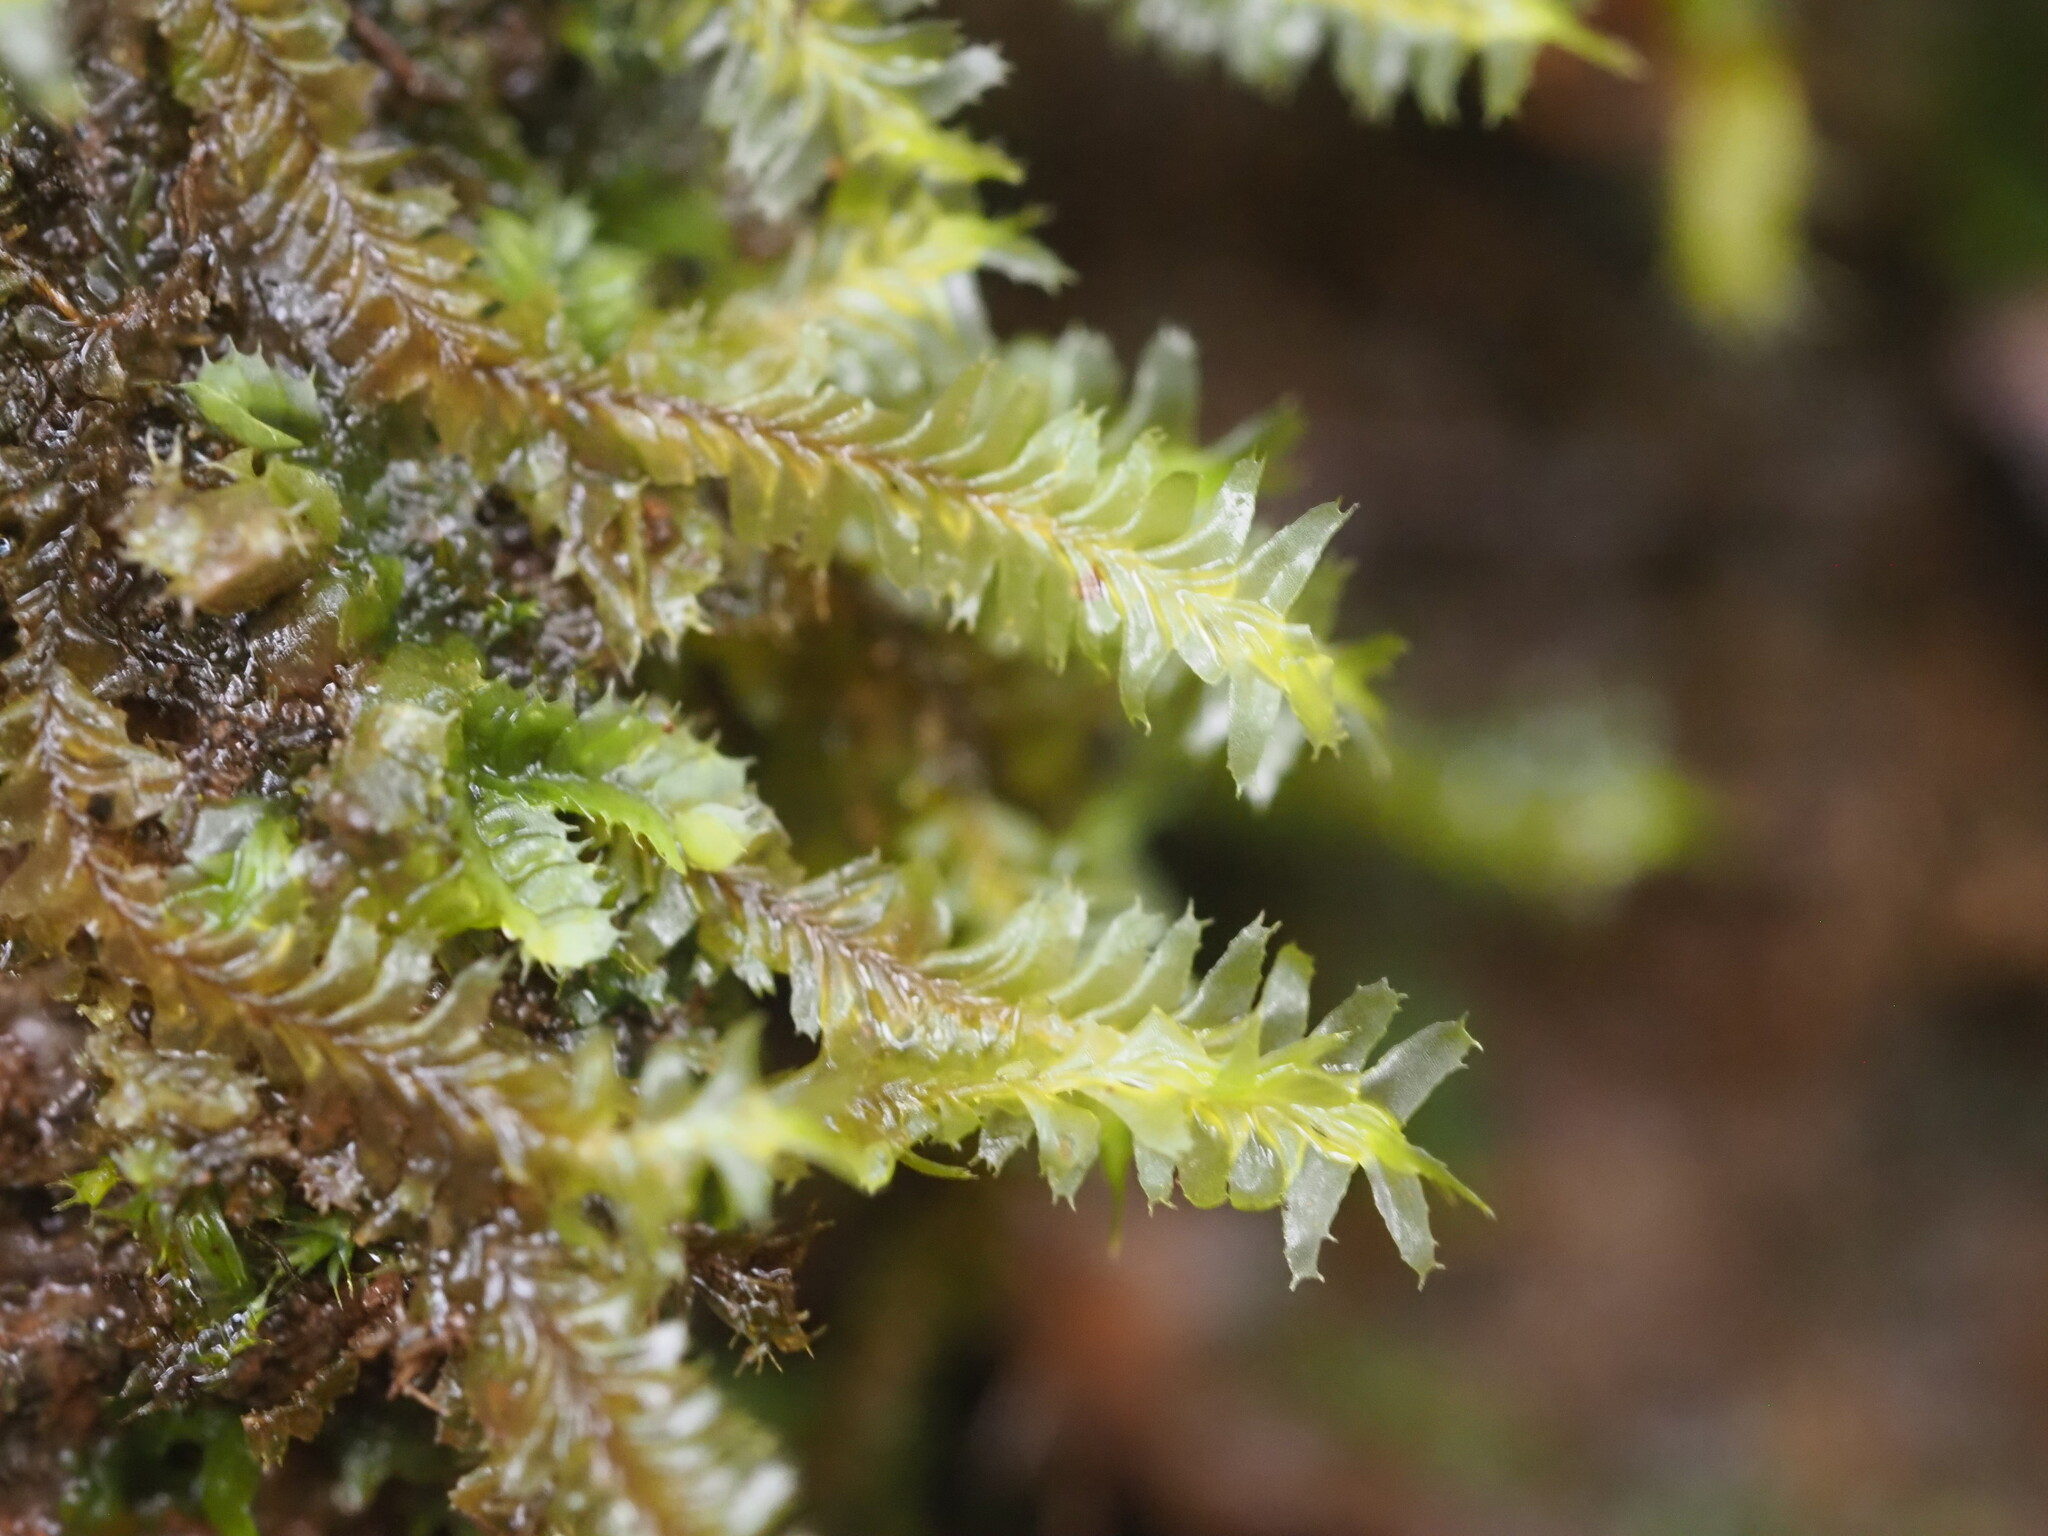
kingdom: Plantae
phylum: Marchantiophyta
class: Jungermanniopsida
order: Jungermanniales
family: Plagiochilaceae
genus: Plagiochila
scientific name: Plagiochila remyana
